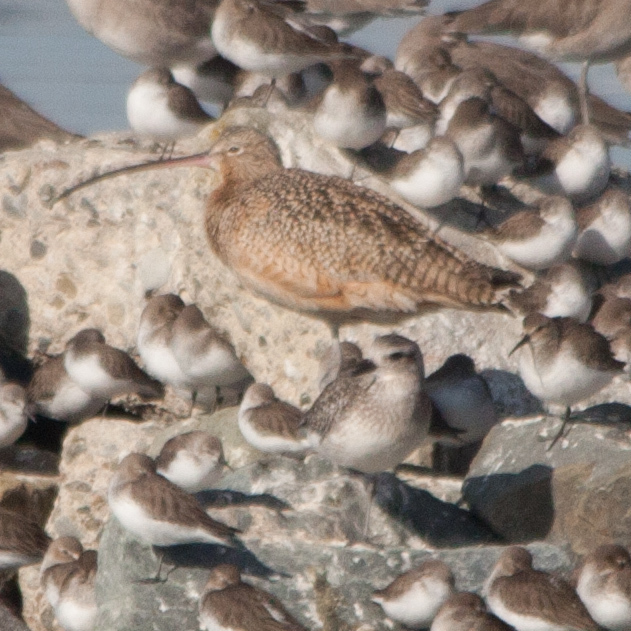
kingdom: Animalia
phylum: Chordata
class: Aves
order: Charadriiformes
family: Scolopacidae
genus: Numenius
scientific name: Numenius americanus
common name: Long-billed curlew
